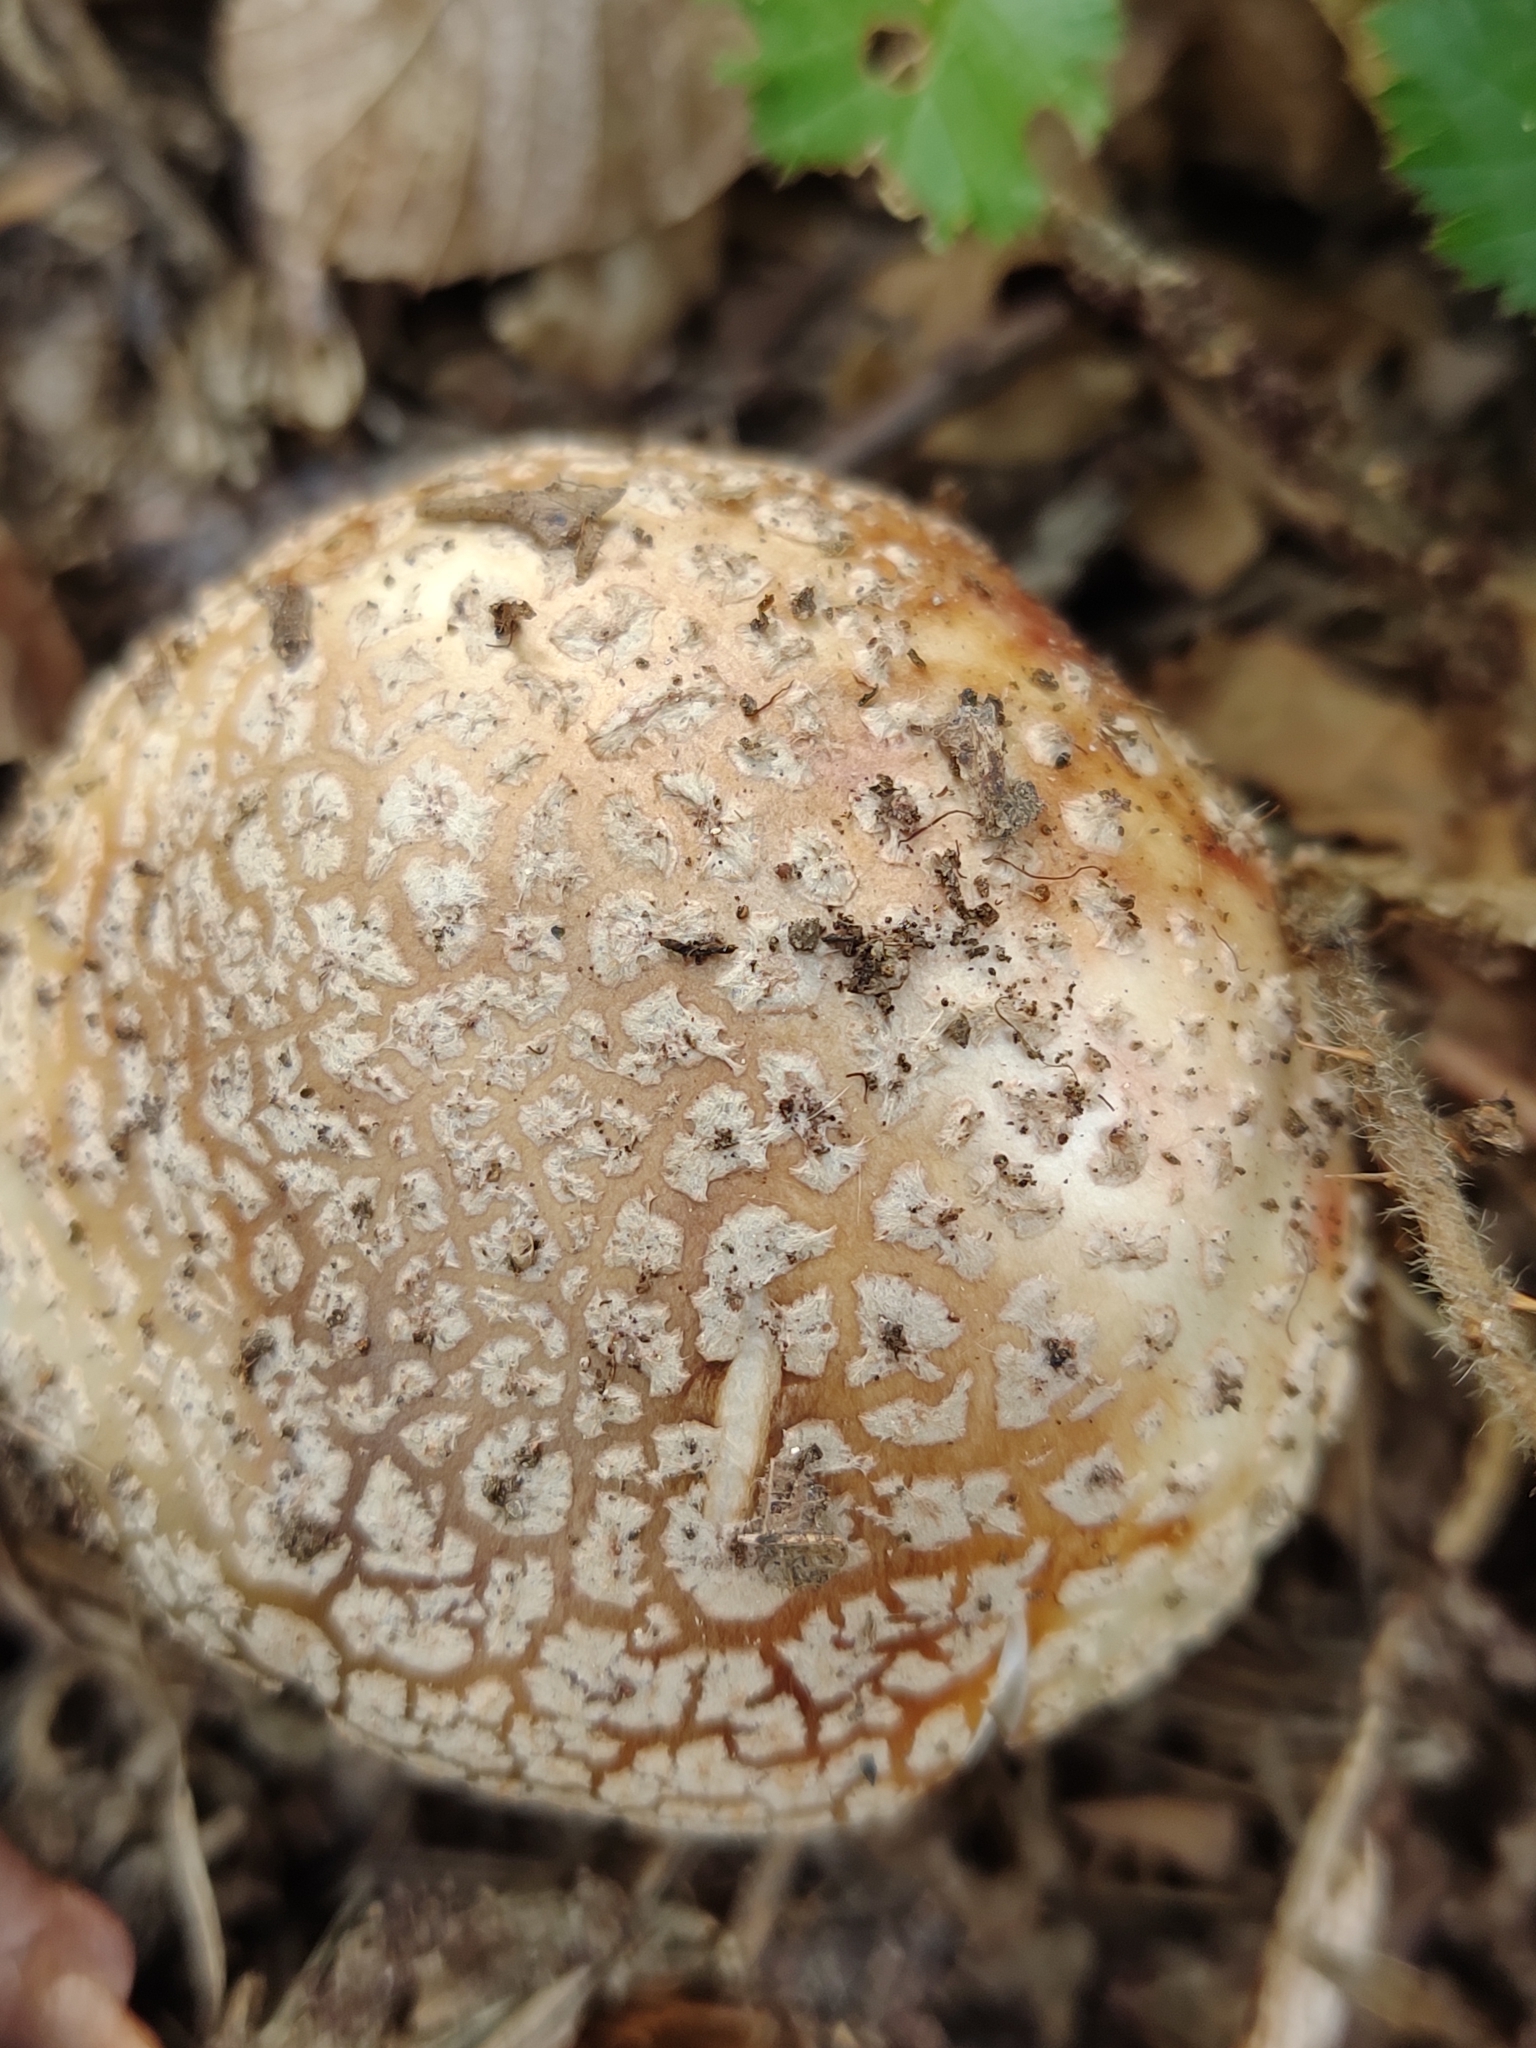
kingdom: Fungi
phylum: Basidiomycota
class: Agaricomycetes
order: Agaricales
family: Amanitaceae
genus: Amanita
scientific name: Amanita rubescens
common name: Blusher
